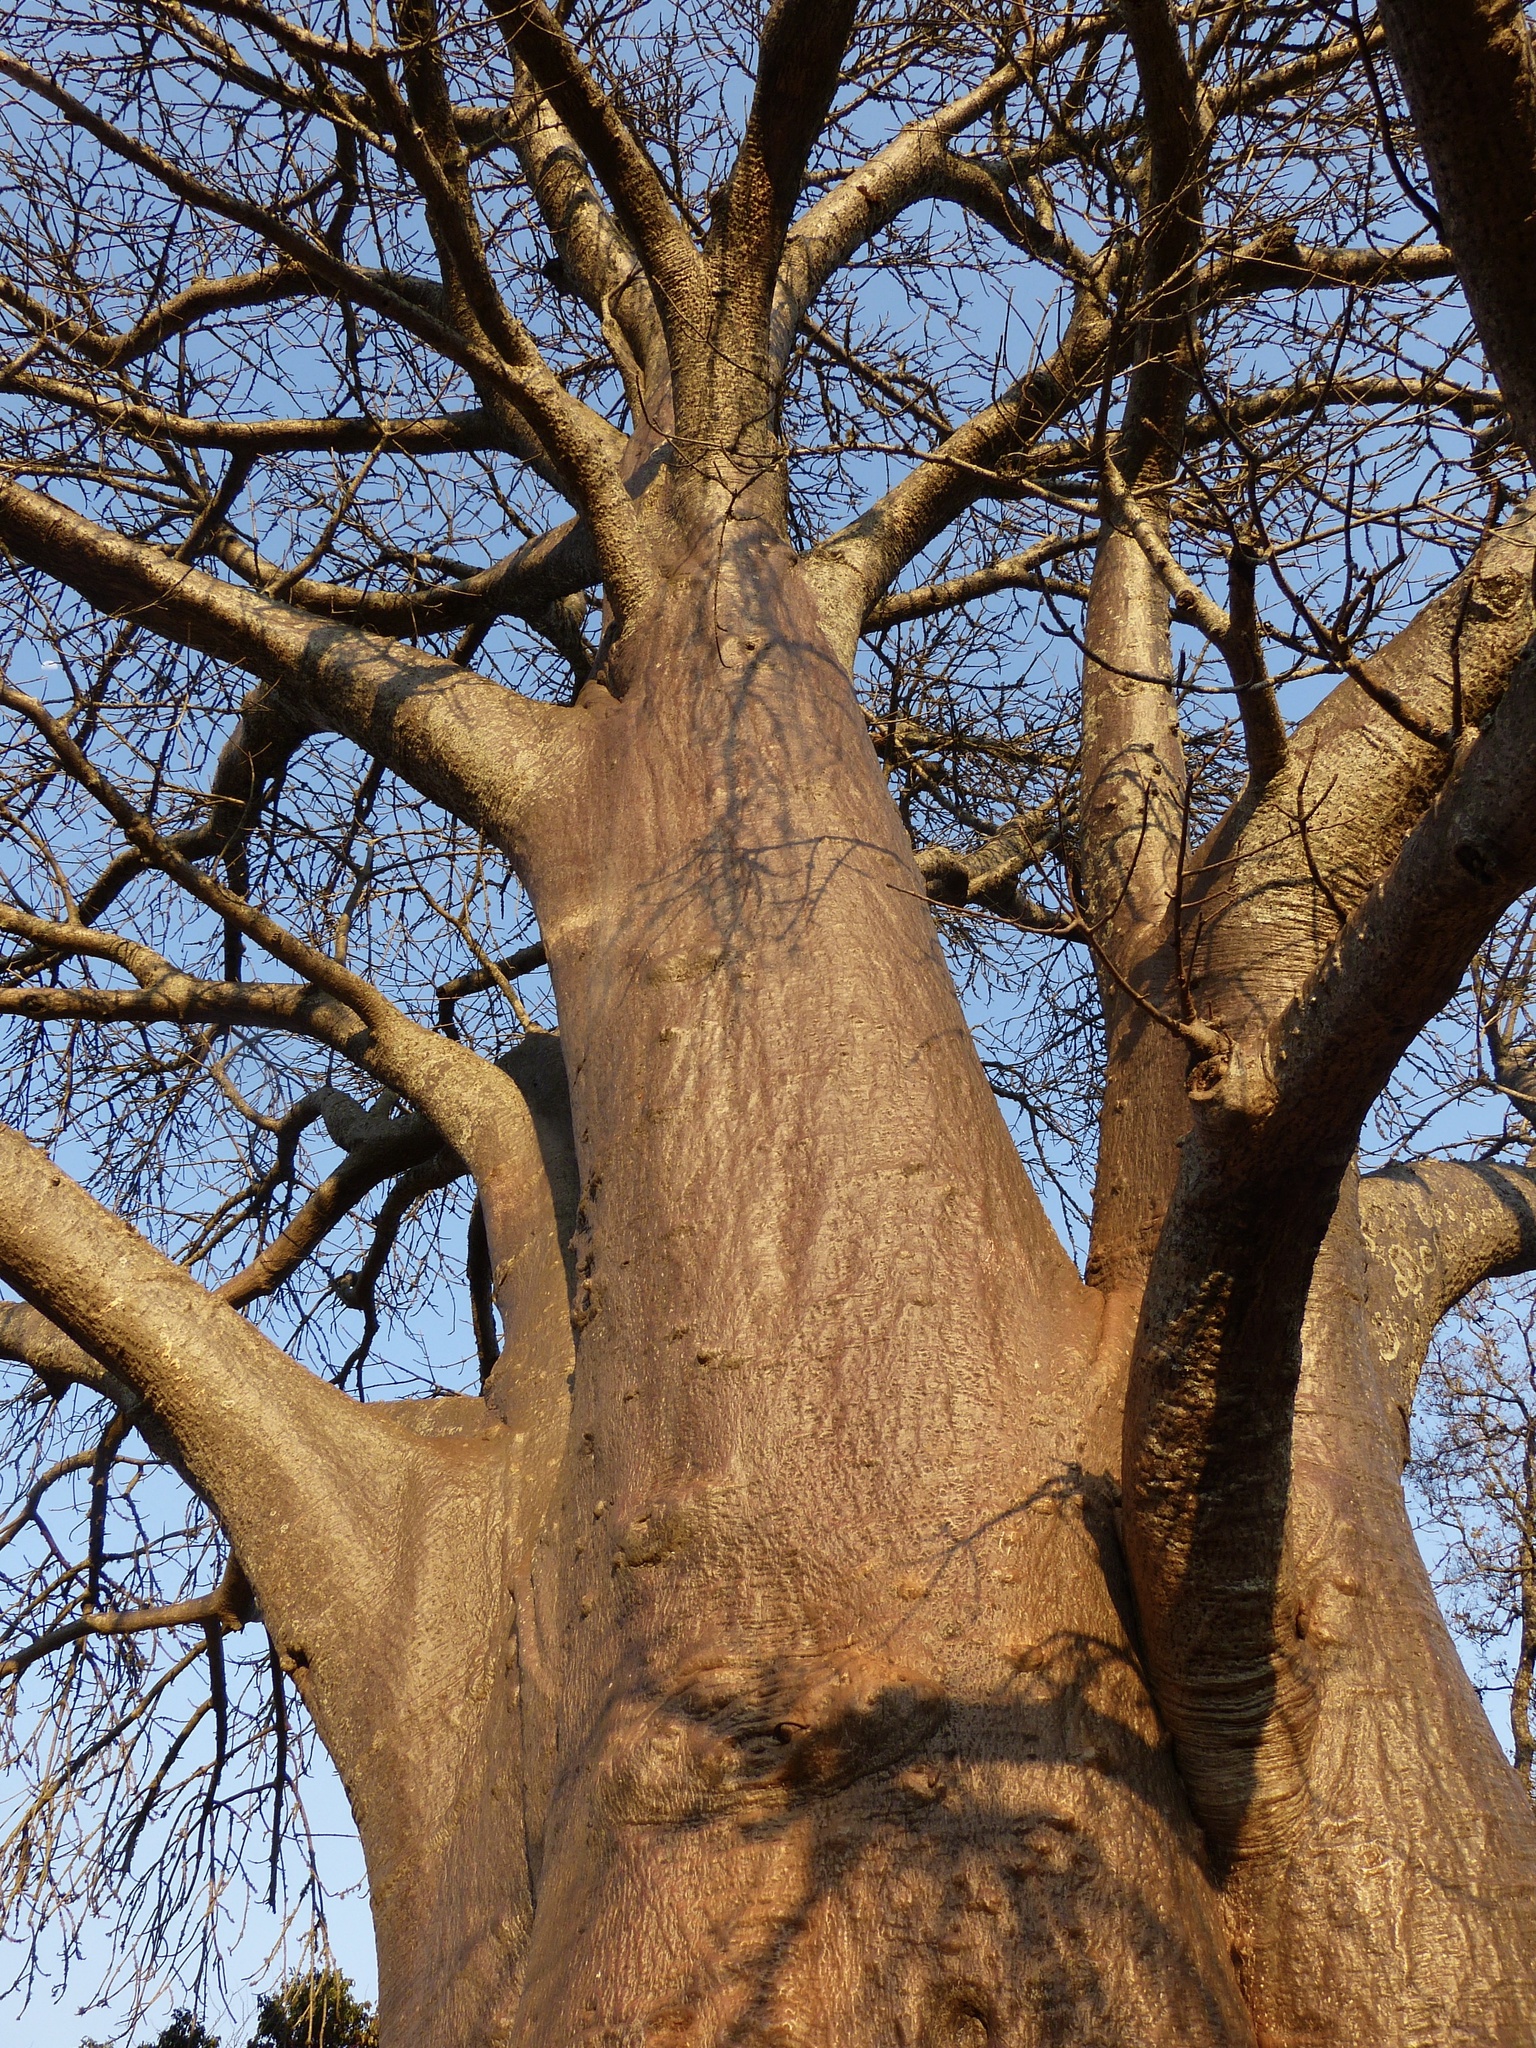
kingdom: Plantae
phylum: Tracheophyta
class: Magnoliopsida
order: Malvales
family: Malvaceae
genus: Adansonia
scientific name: Adansonia digitata
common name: Dead-rat-tree
